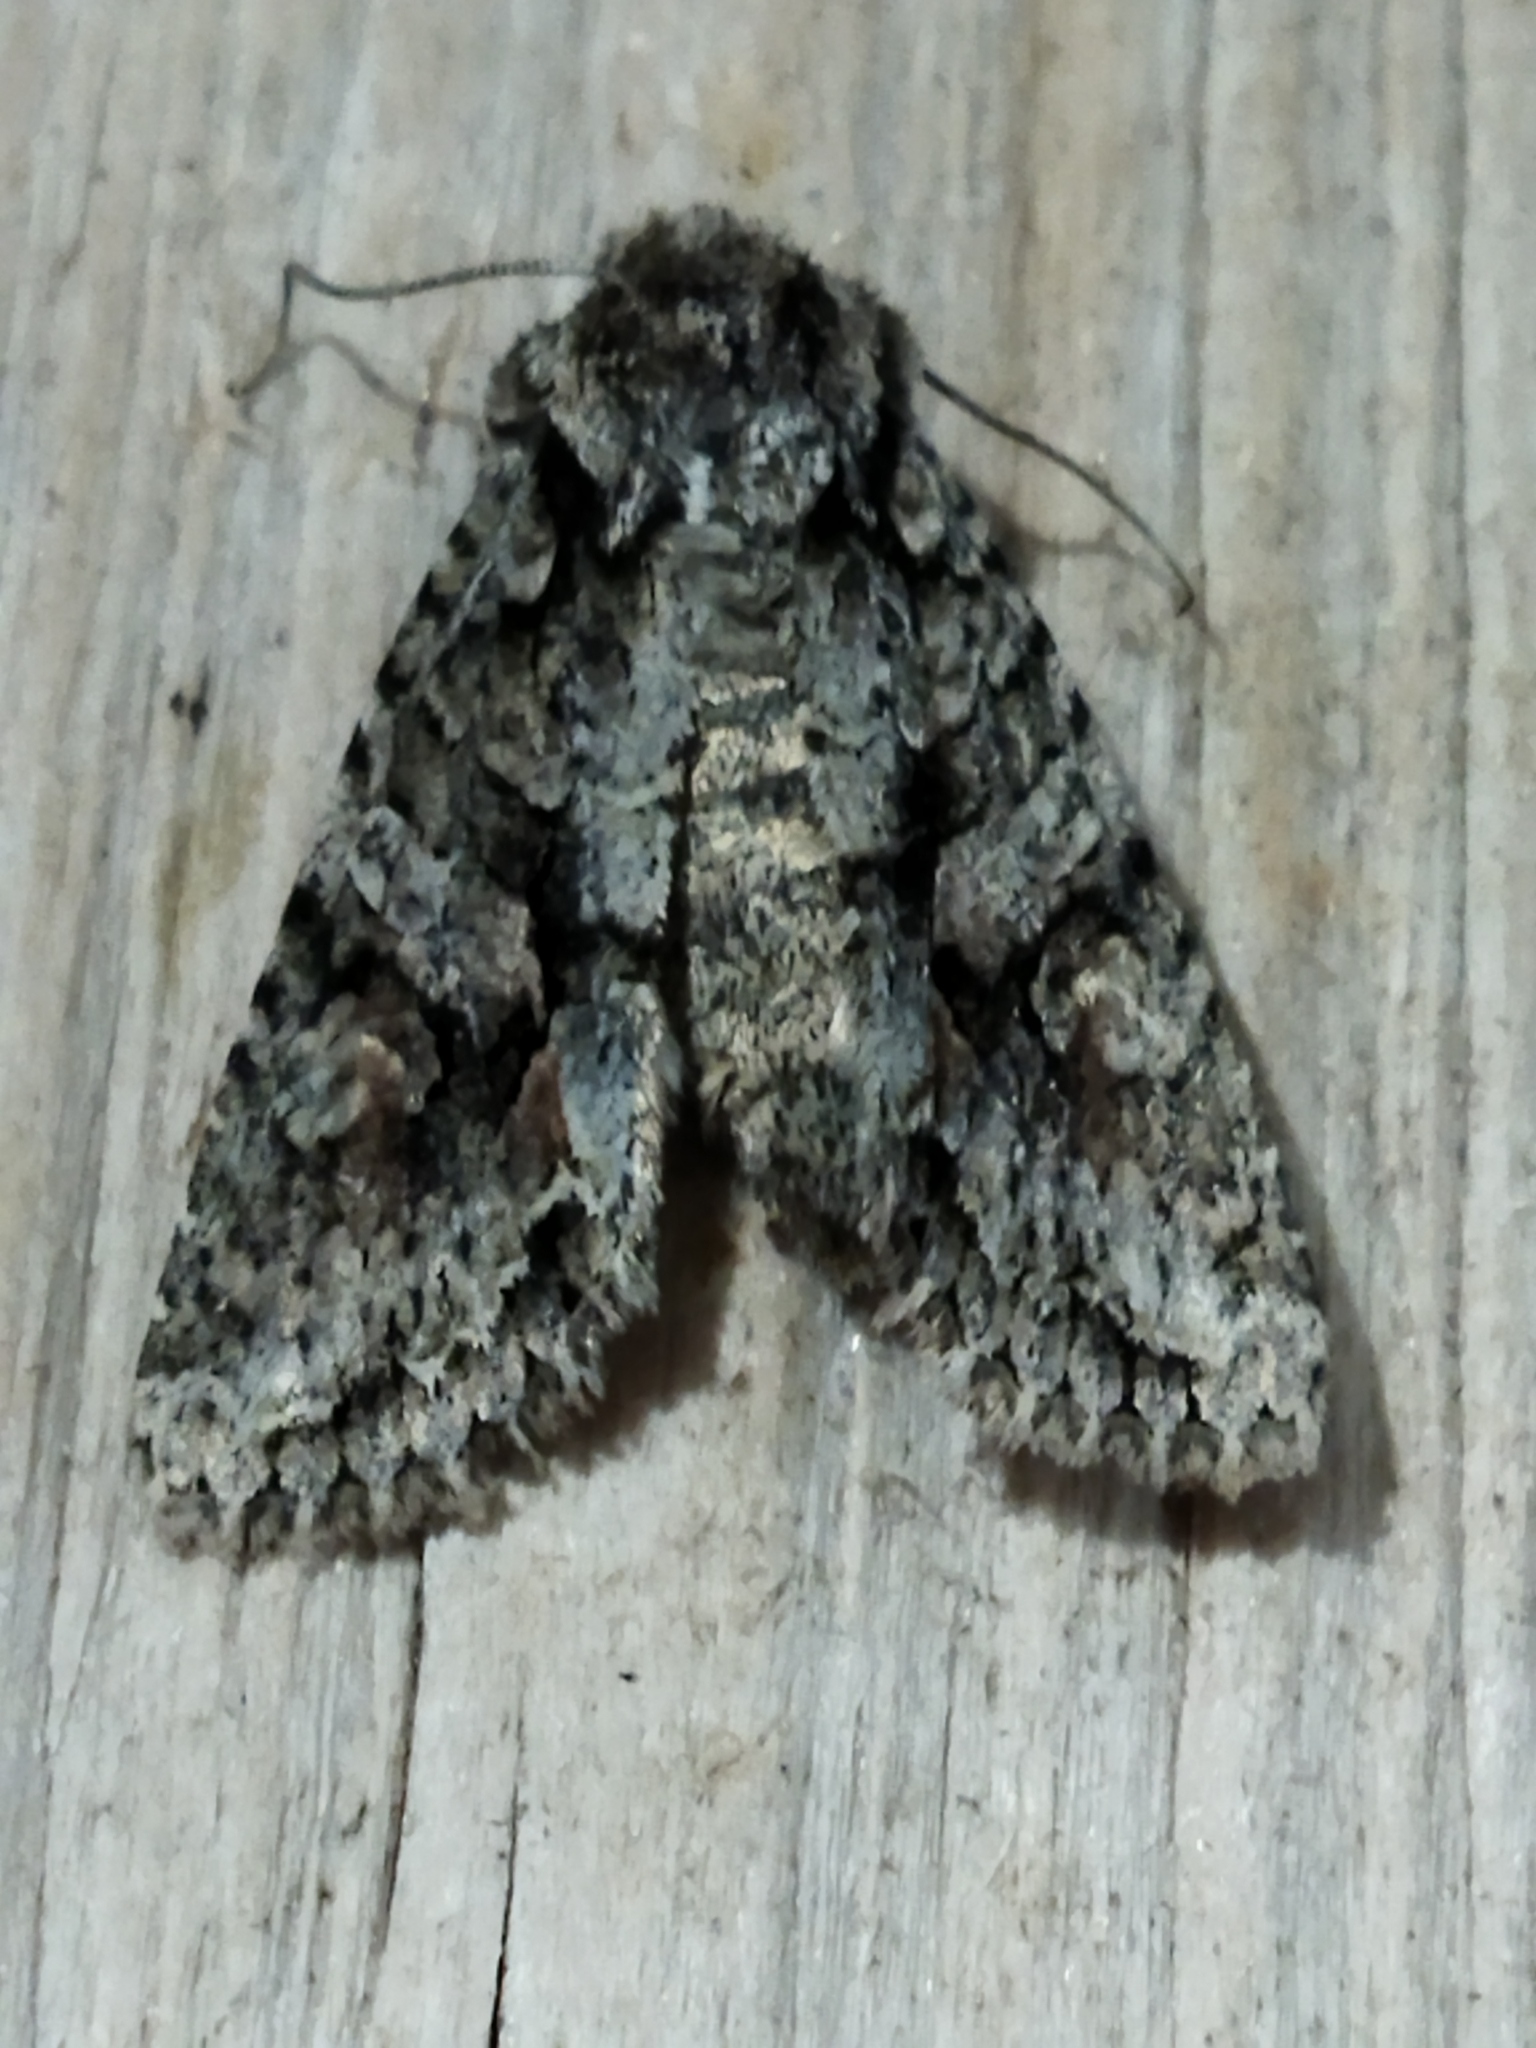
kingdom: Animalia
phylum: Arthropoda
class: Insecta
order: Lepidoptera
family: Noctuidae
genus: Dryobotodes
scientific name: Dryobotodes eremita
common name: Brindled green
